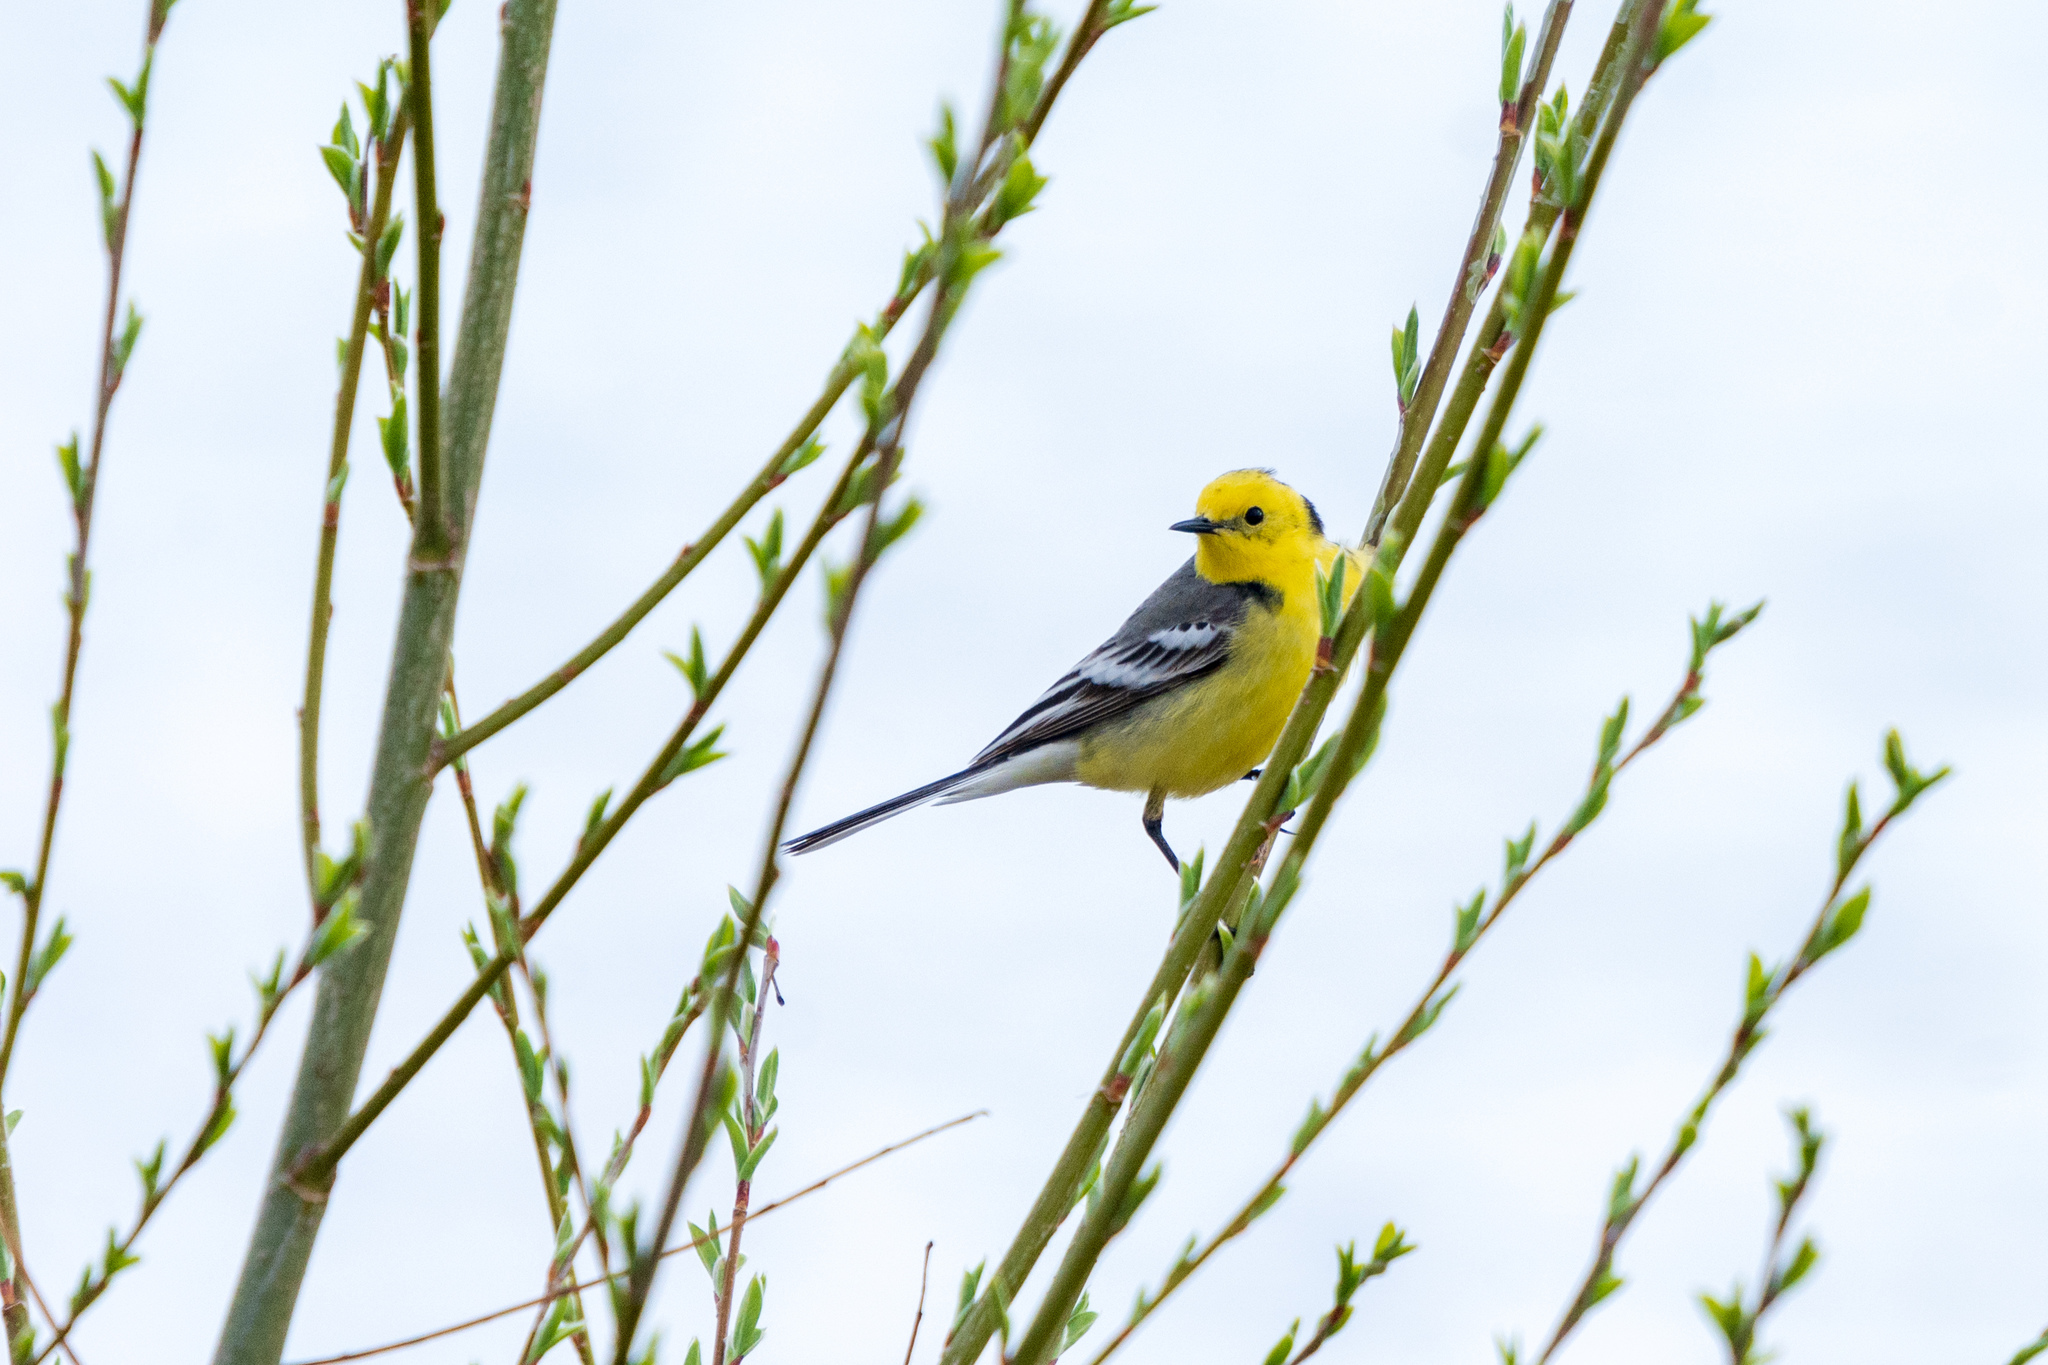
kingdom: Animalia
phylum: Chordata
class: Aves
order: Passeriformes
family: Motacillidae
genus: Motacilla
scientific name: Motacilla citreola
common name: Citrine wagtail
